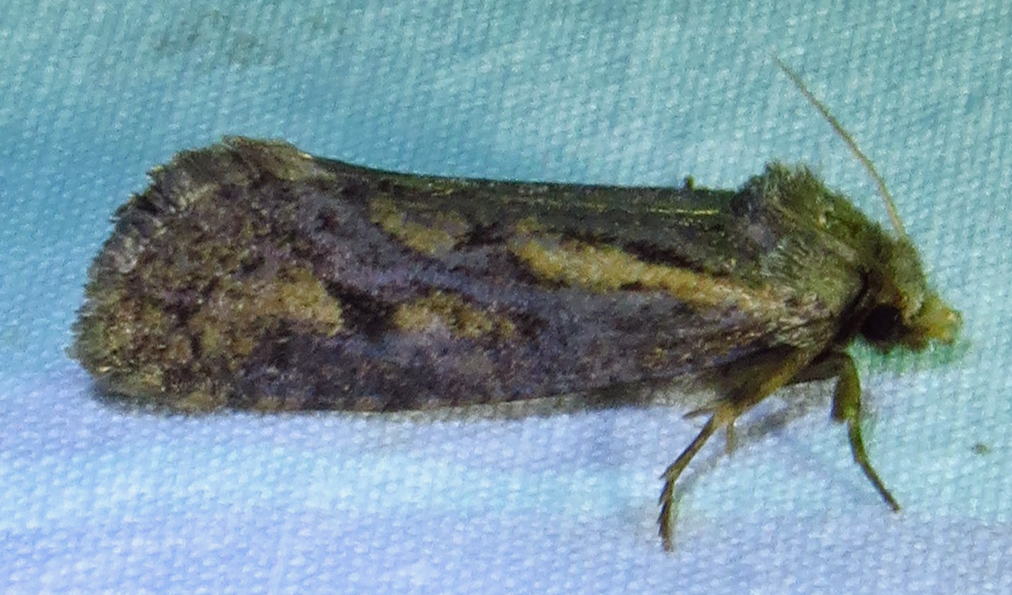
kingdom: Animalia
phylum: Arthropoda
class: Insecta
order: Lepidoptera
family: Tineidae
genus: Acrolophus
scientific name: Acrolophus popeanella
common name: Clemens' grass tubeworm moth
